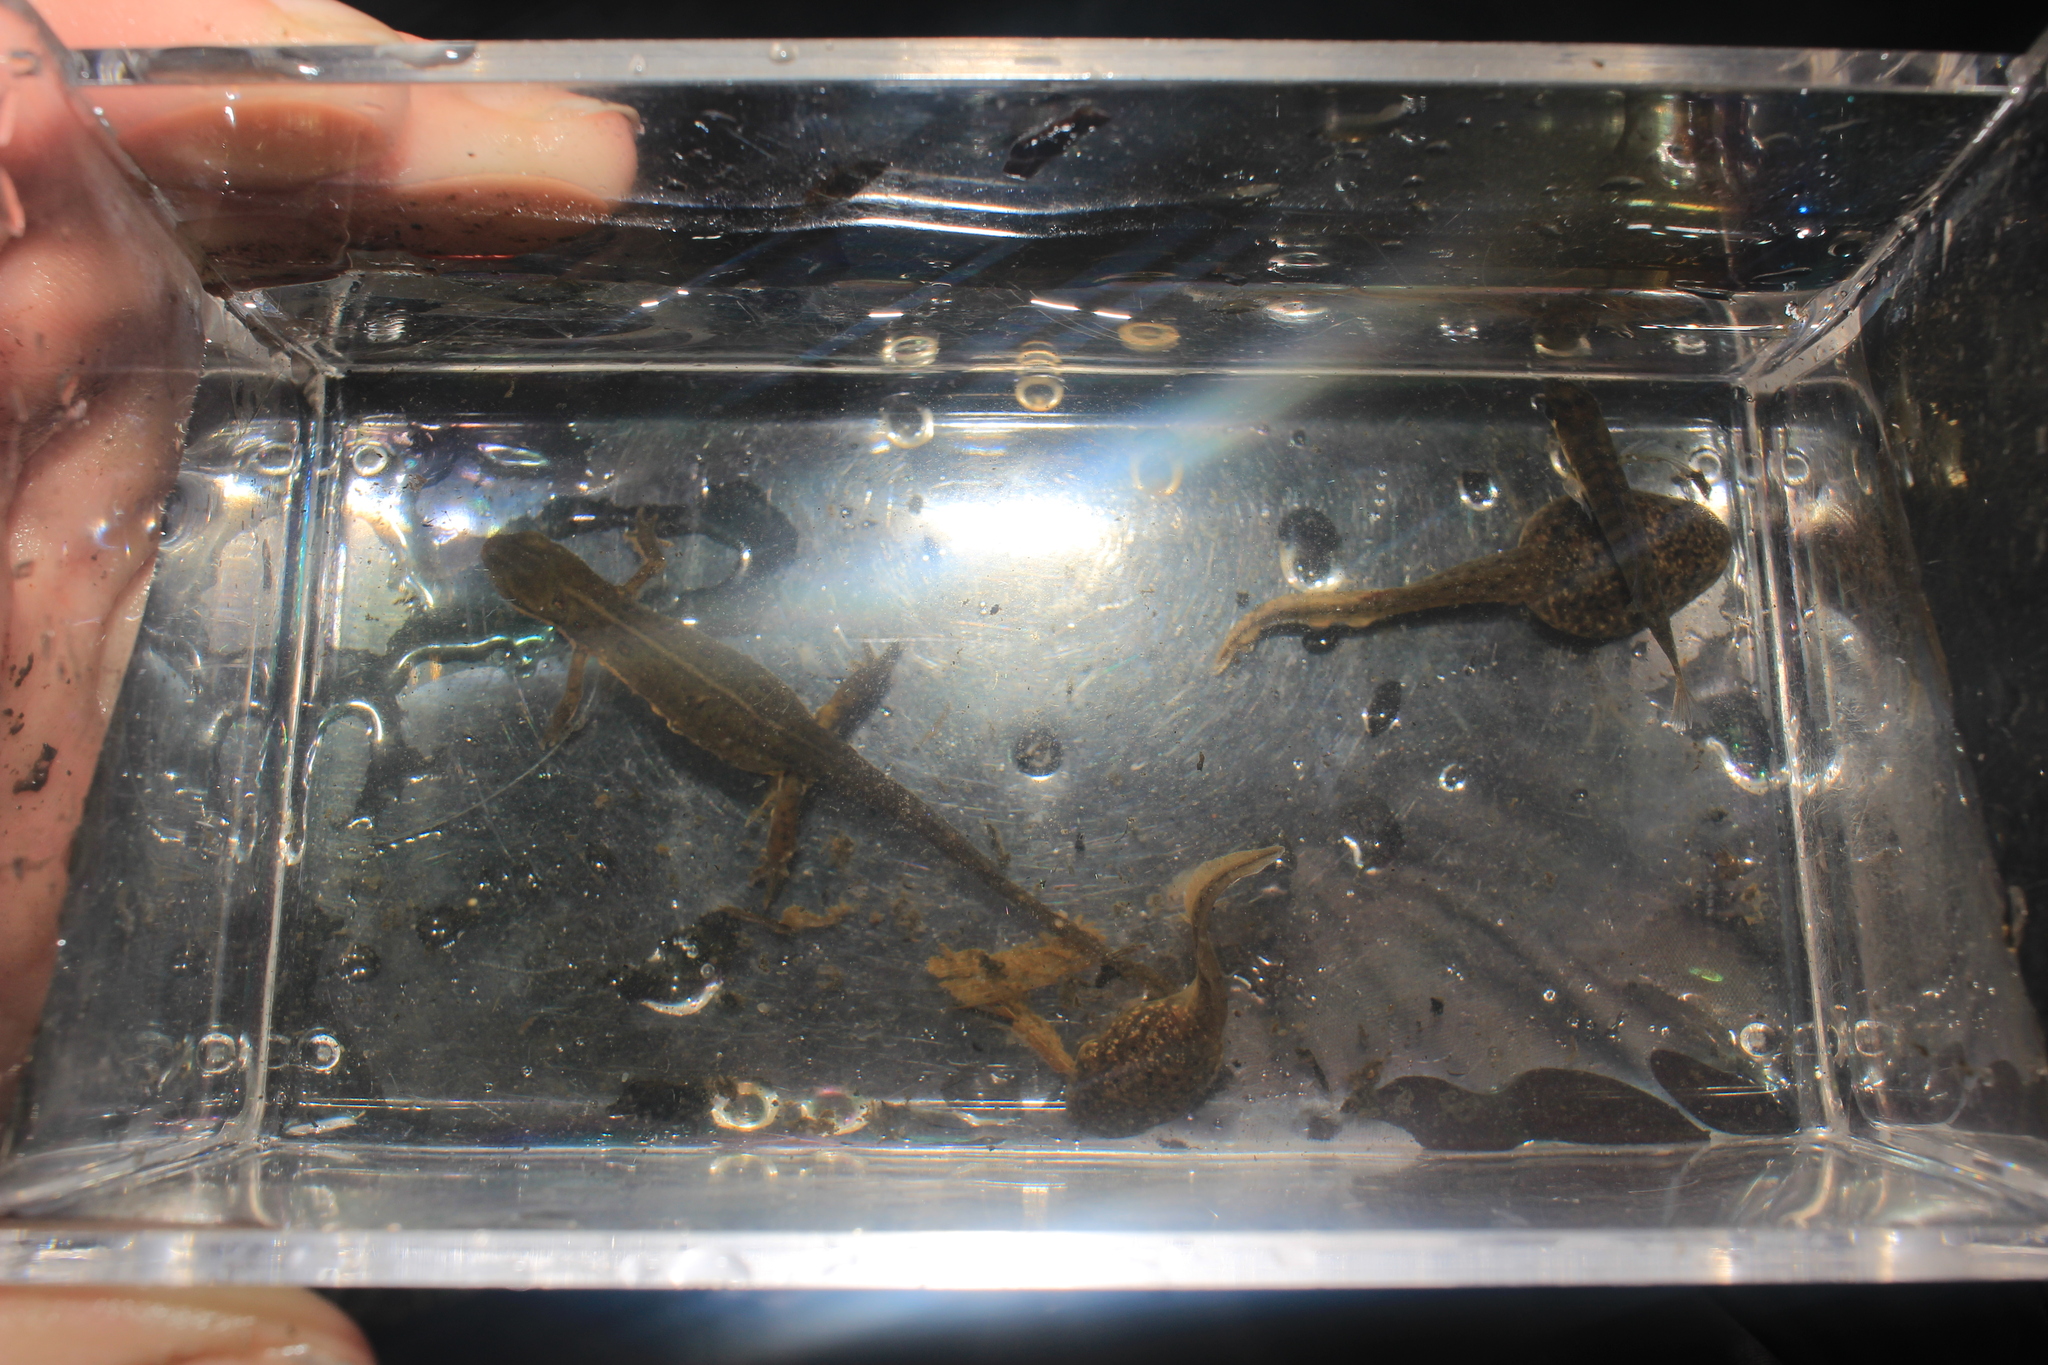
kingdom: Animalia
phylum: Chordata
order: Perciformes
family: Centrarchidae
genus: Lepomis
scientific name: Lepomis macrochirus
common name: Bluegill
